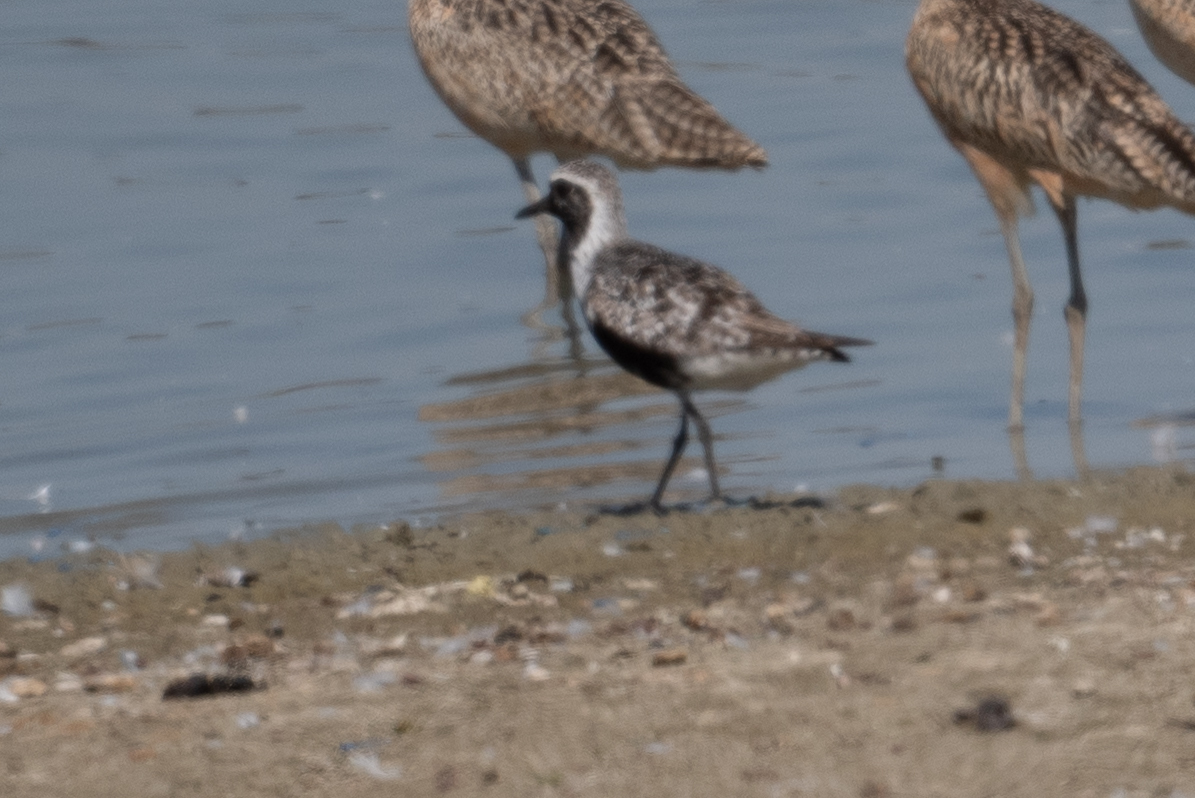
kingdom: Animalia
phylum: Chordata
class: Aves
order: Charadriiformes
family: Charadriidae
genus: Pluvialis
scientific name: Pluvialis squatarola
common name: Grey plover
